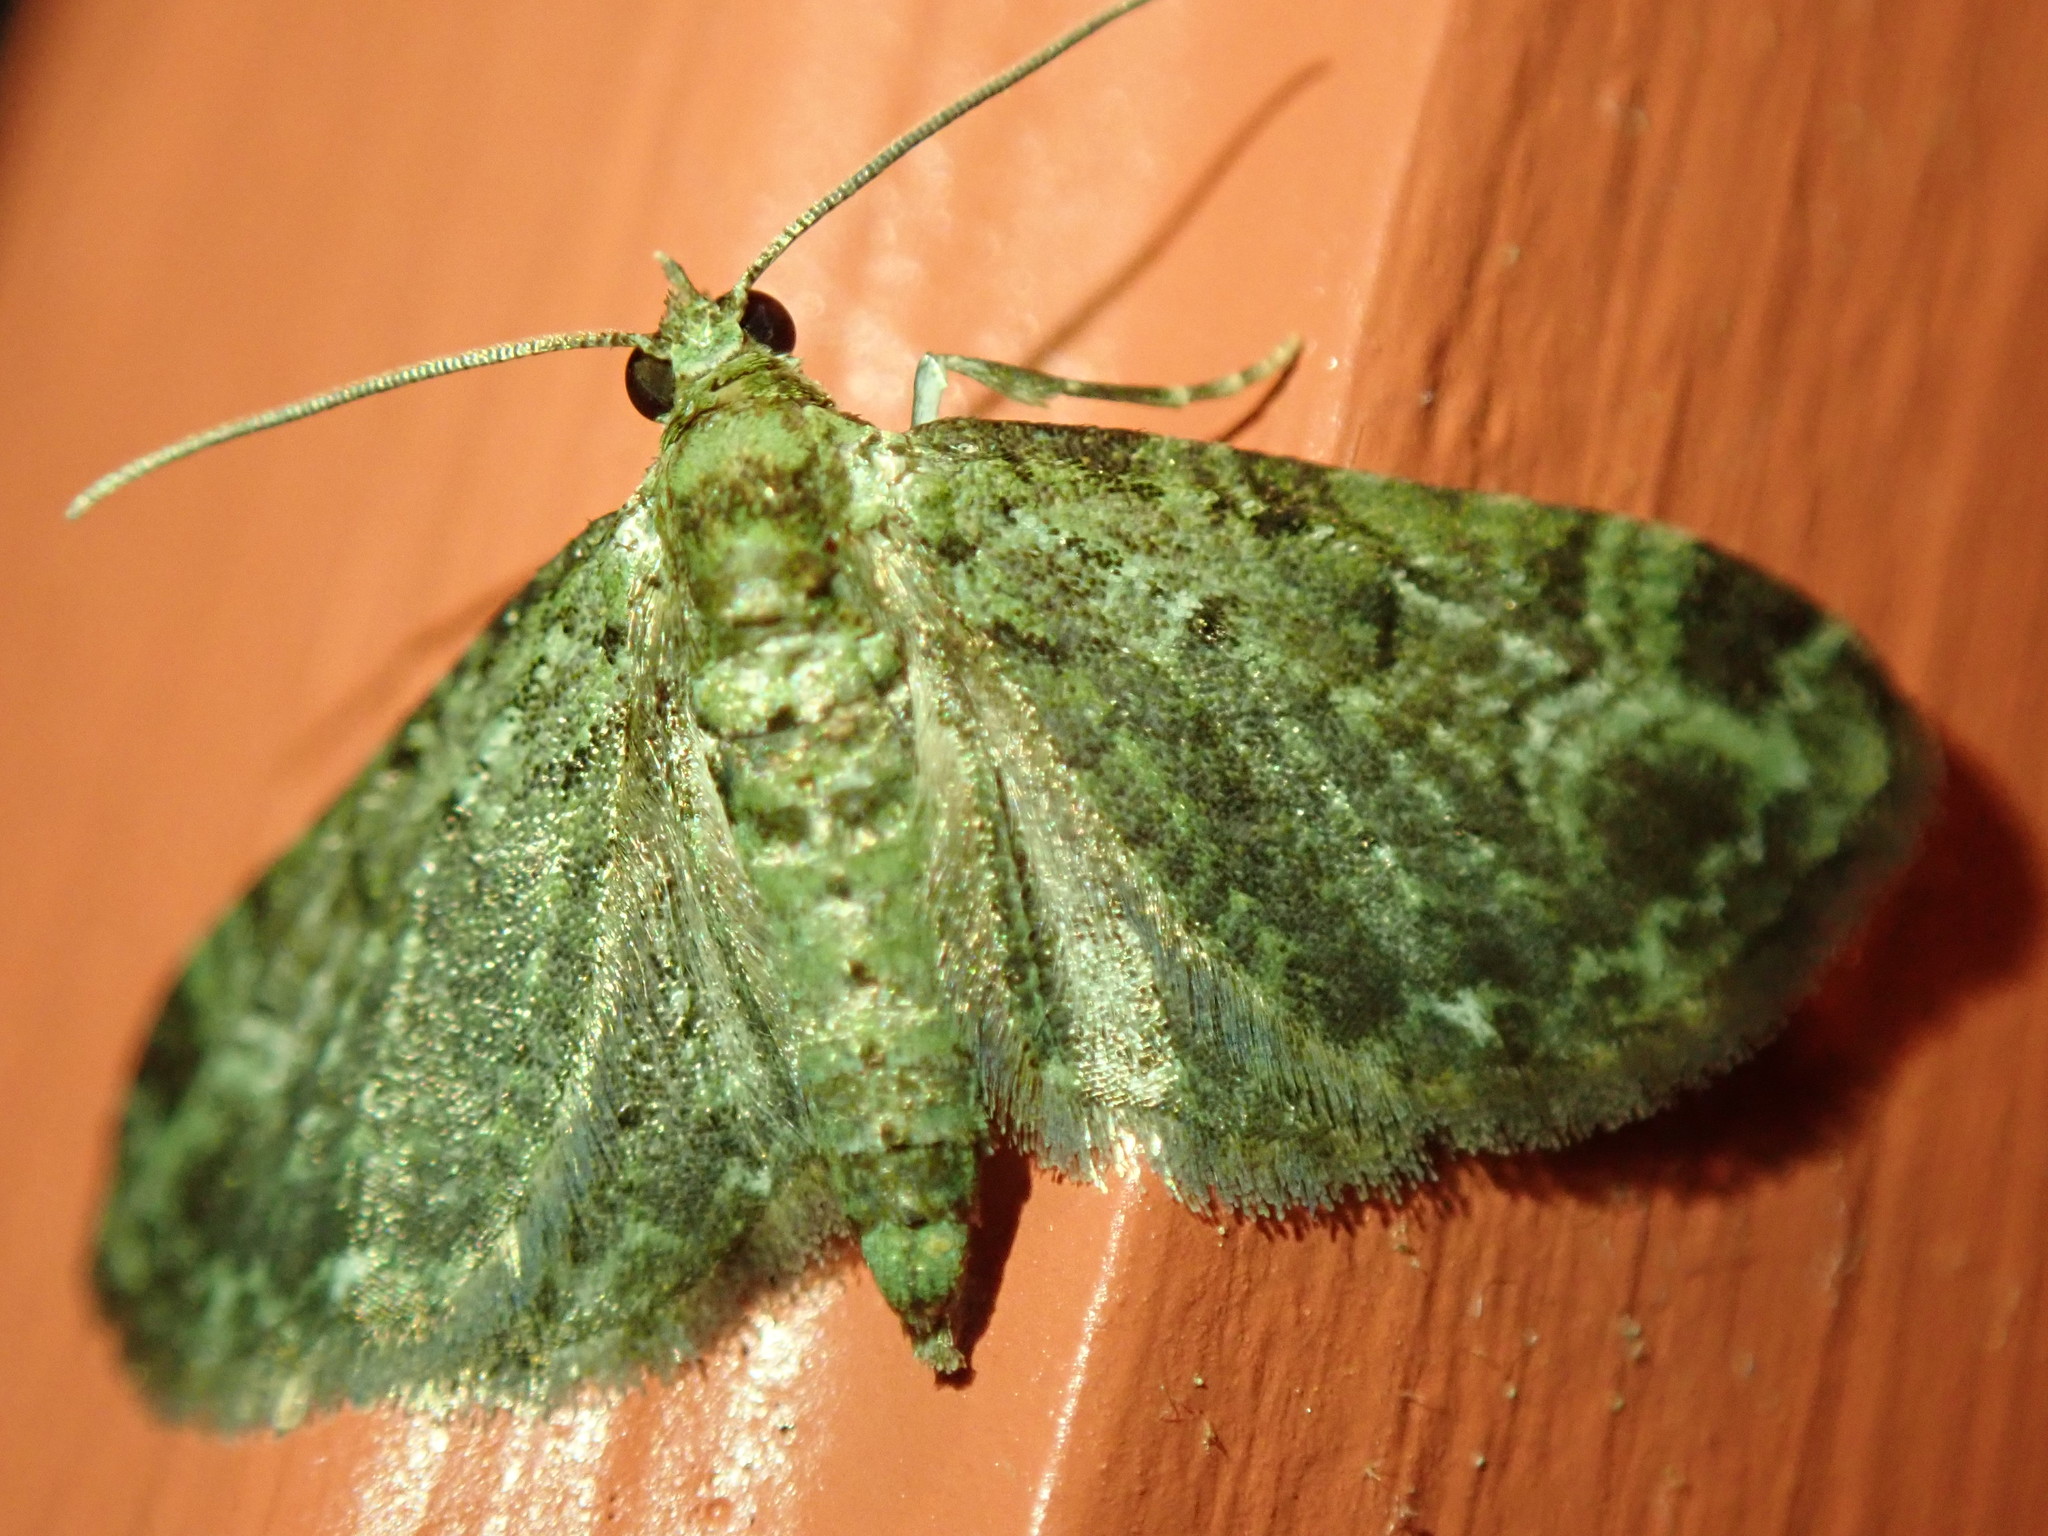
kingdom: Animalia
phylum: Arthropoda
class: Insecta
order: Lepidoptera
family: Geometridae
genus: Pasiphila
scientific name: Pasiphila rectangulata
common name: Green pug
